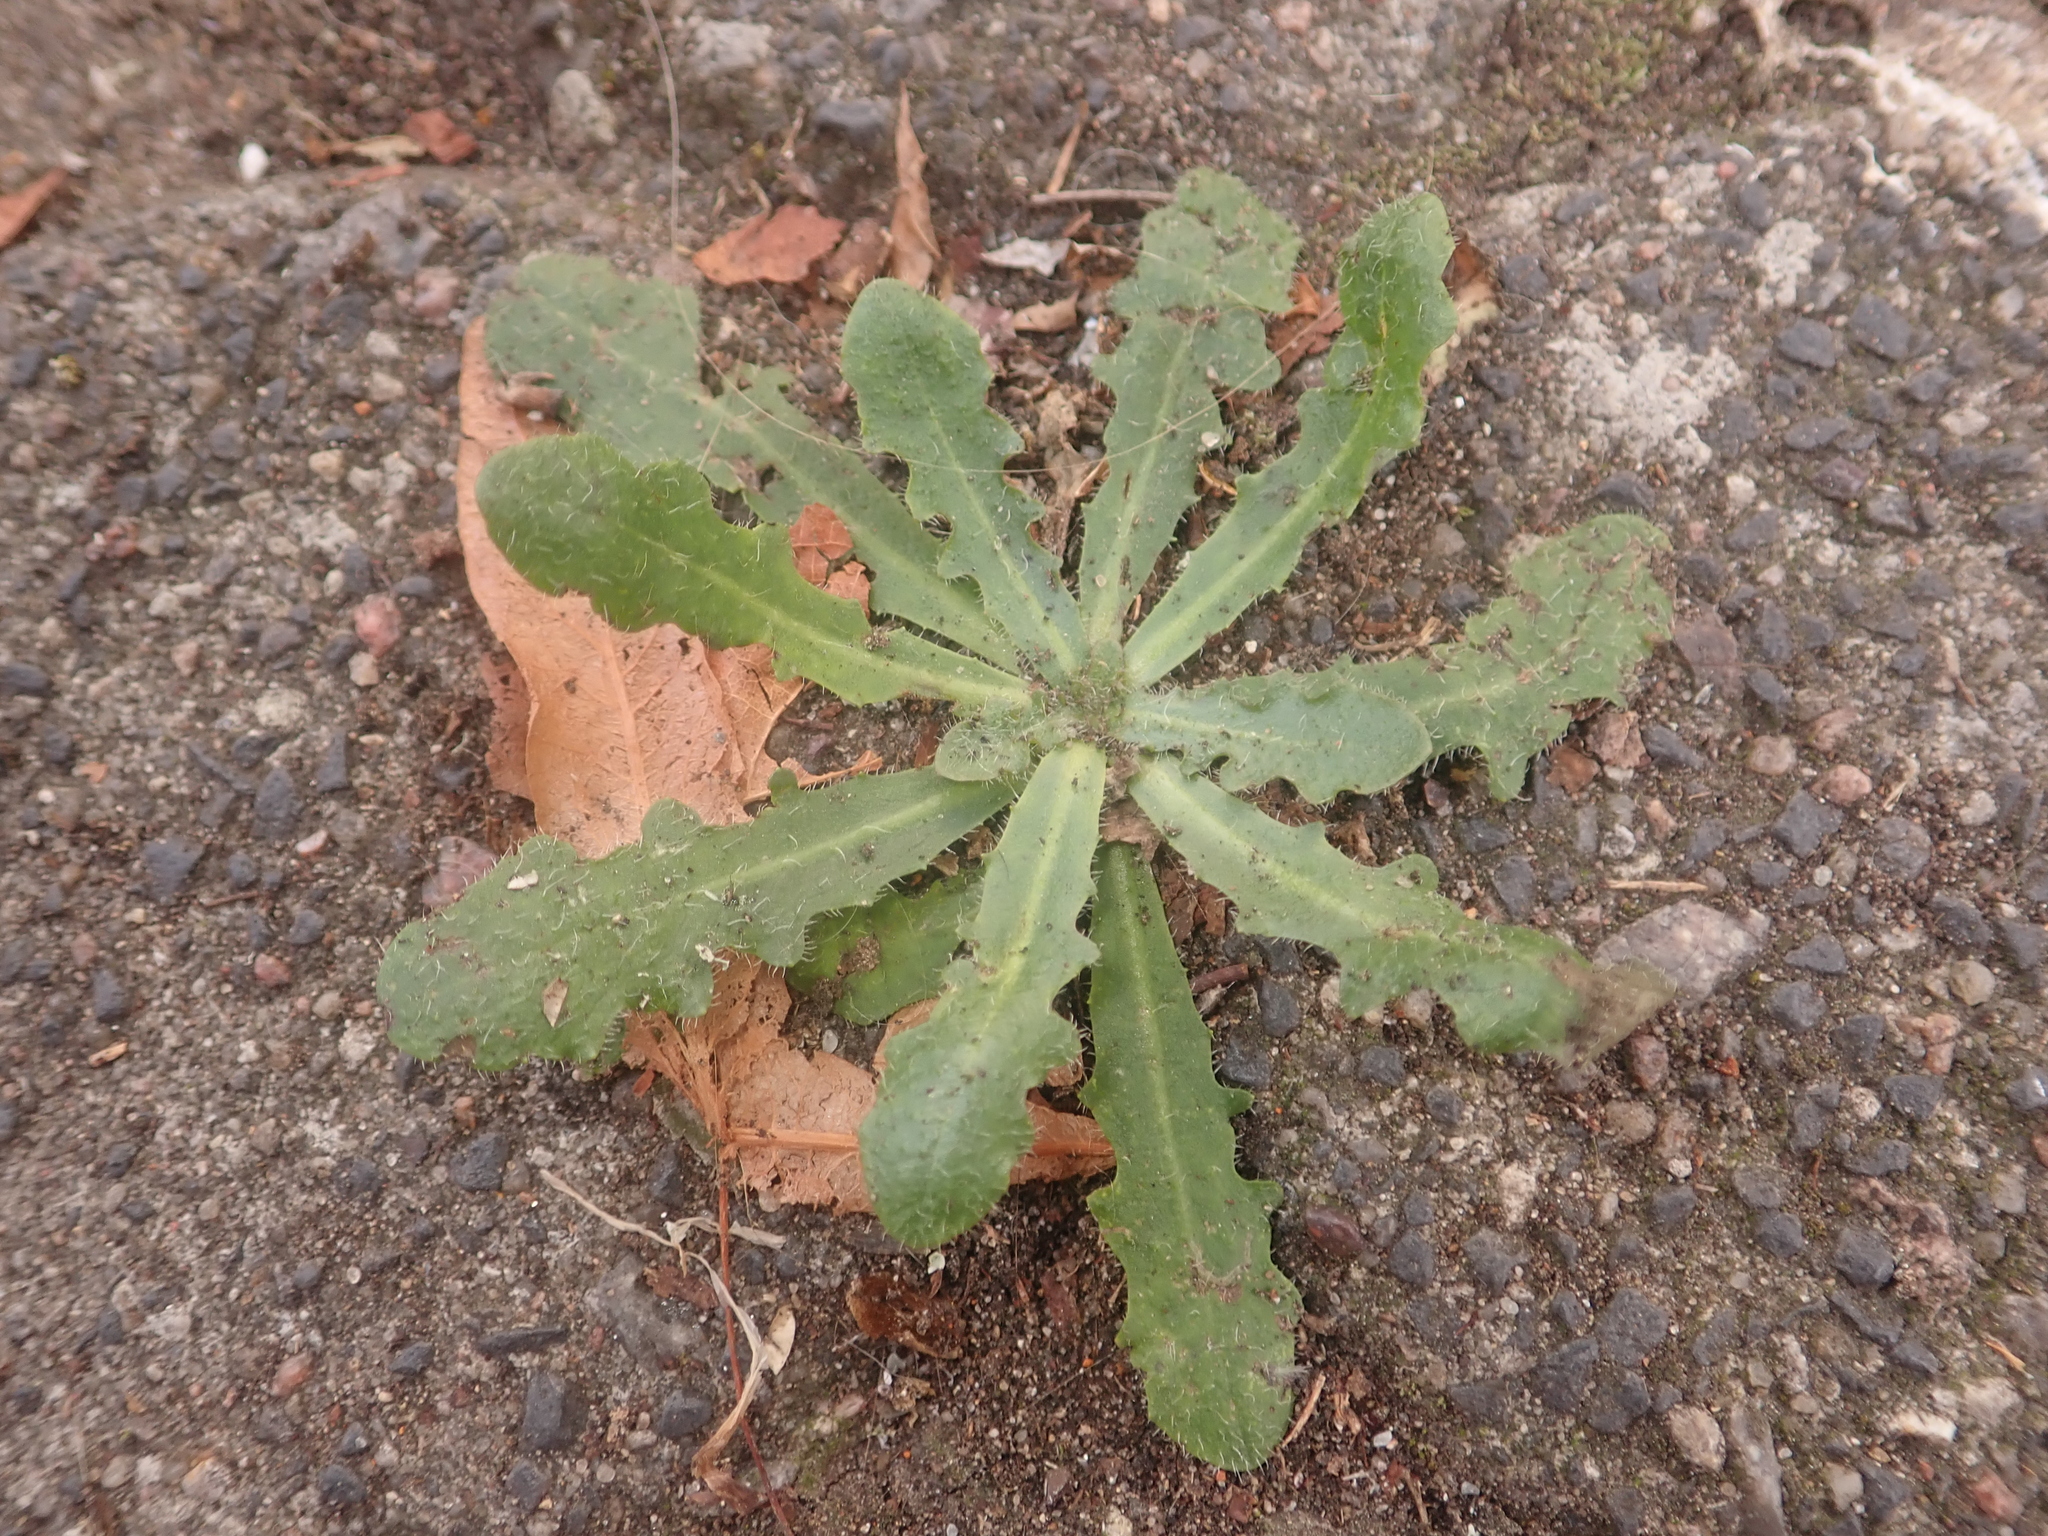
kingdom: Plantae
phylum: Tracheophyta
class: Magnoliopsida
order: Asterales
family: Asteraceae
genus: Hypochaeris
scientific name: Hypochaeris radicata
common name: Flatweed
